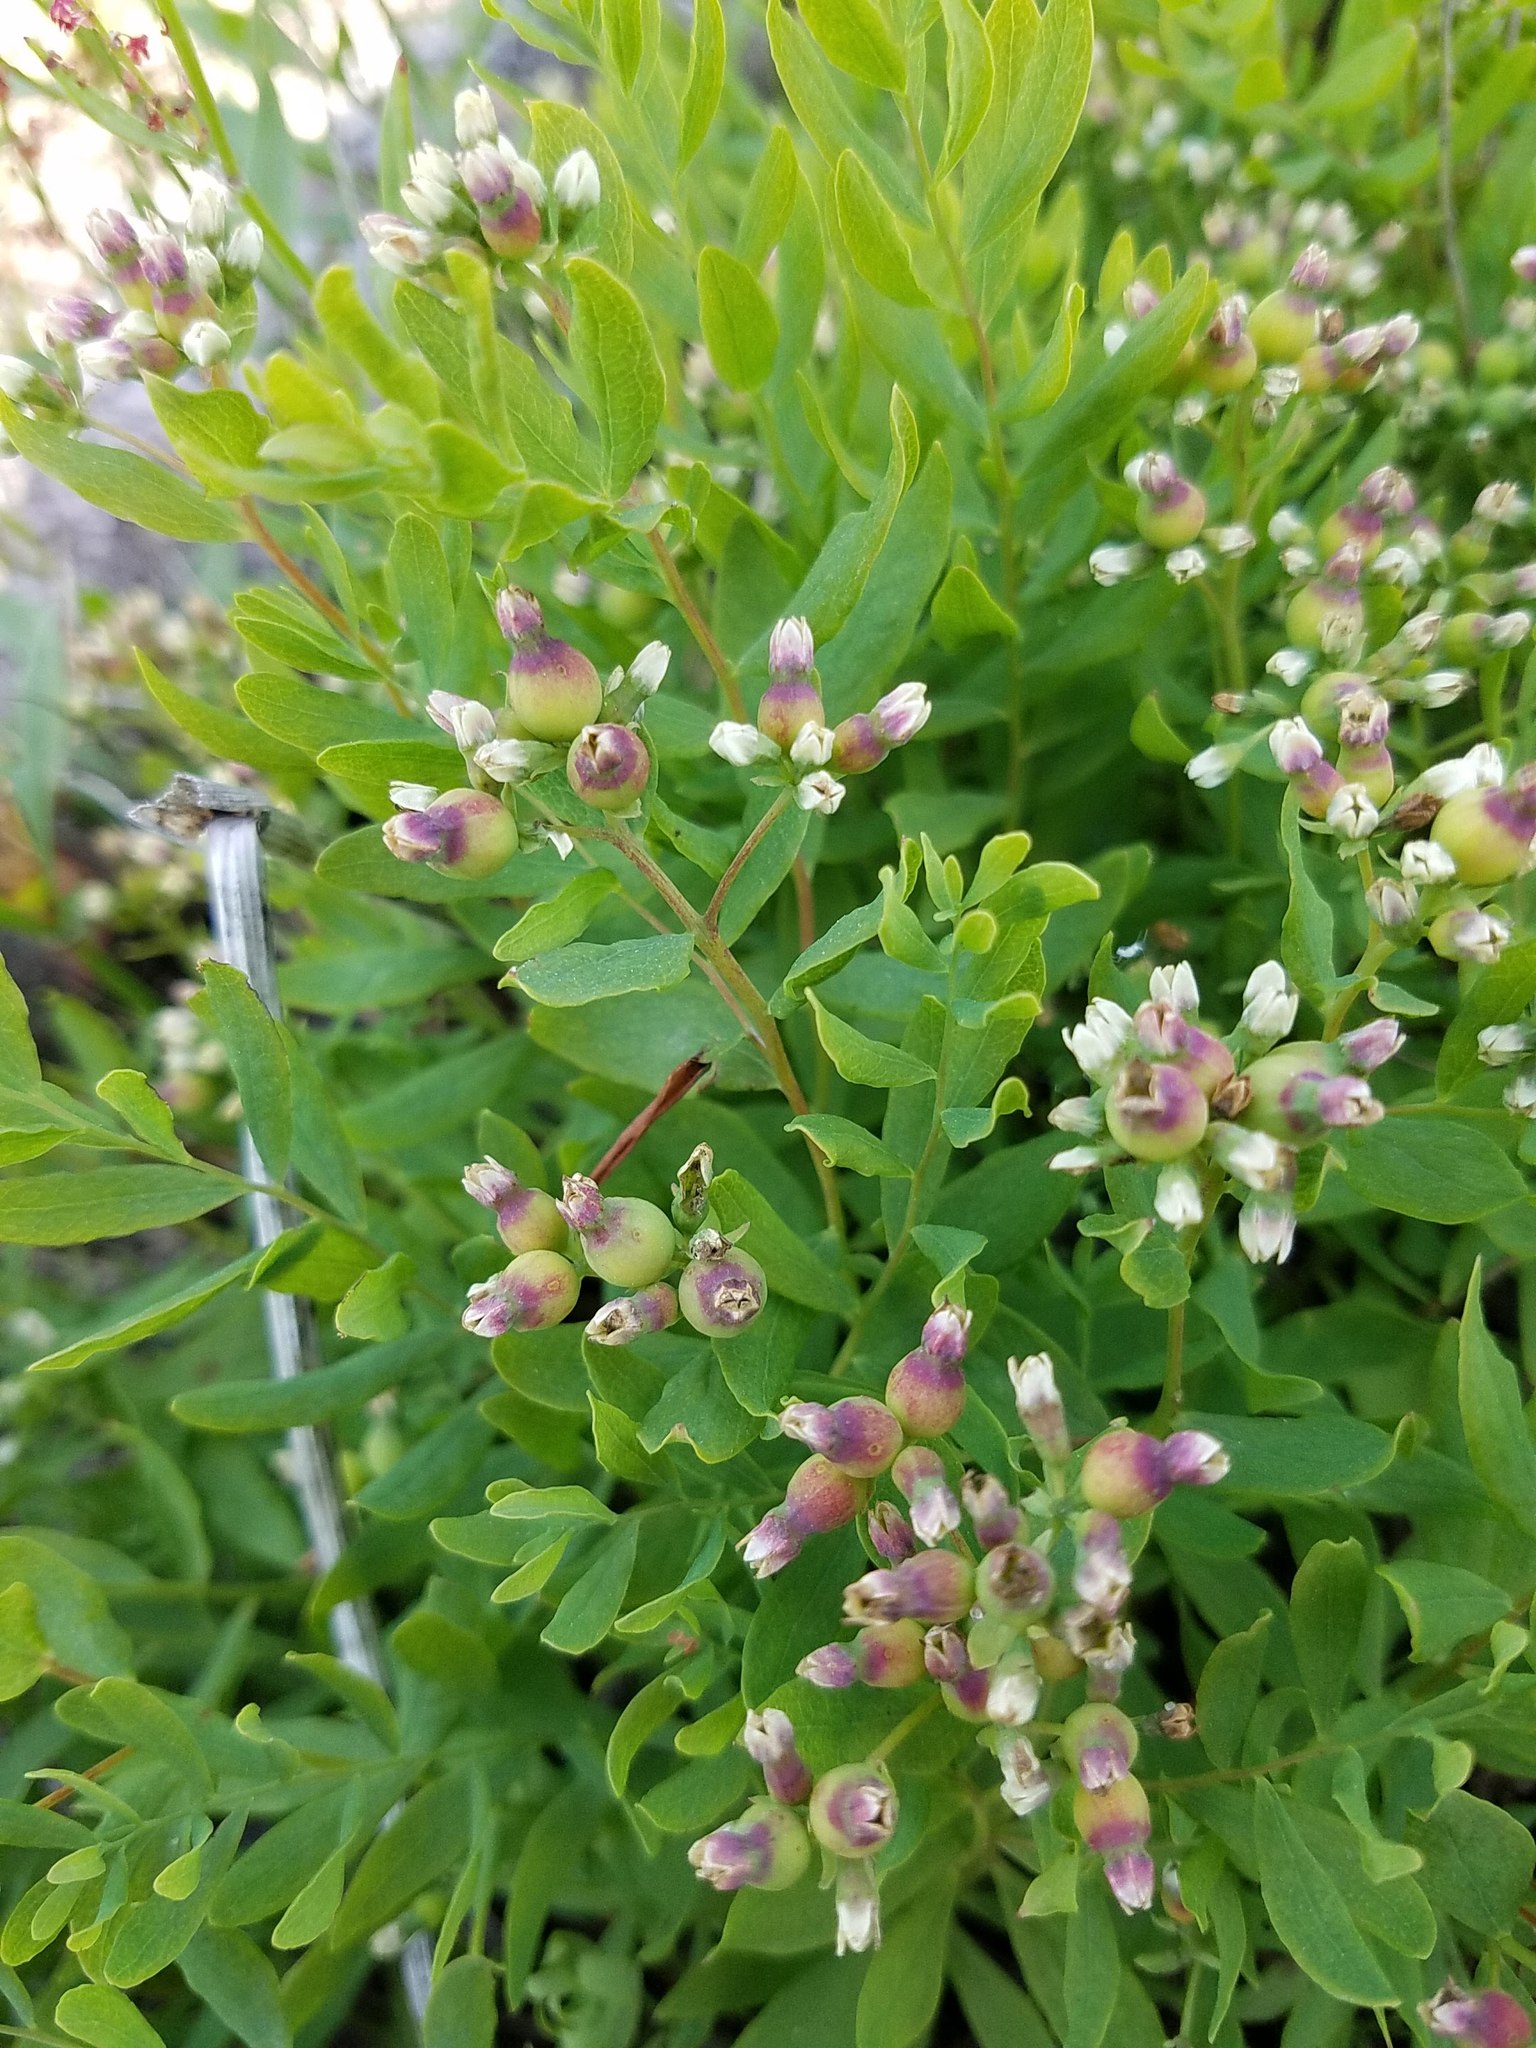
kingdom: Plantae
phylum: Tracheophyta
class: Magnoliopsida
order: Santalales
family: Comandraceae
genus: Comandra
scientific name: Comandra umbellata
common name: Bastard toadflax
